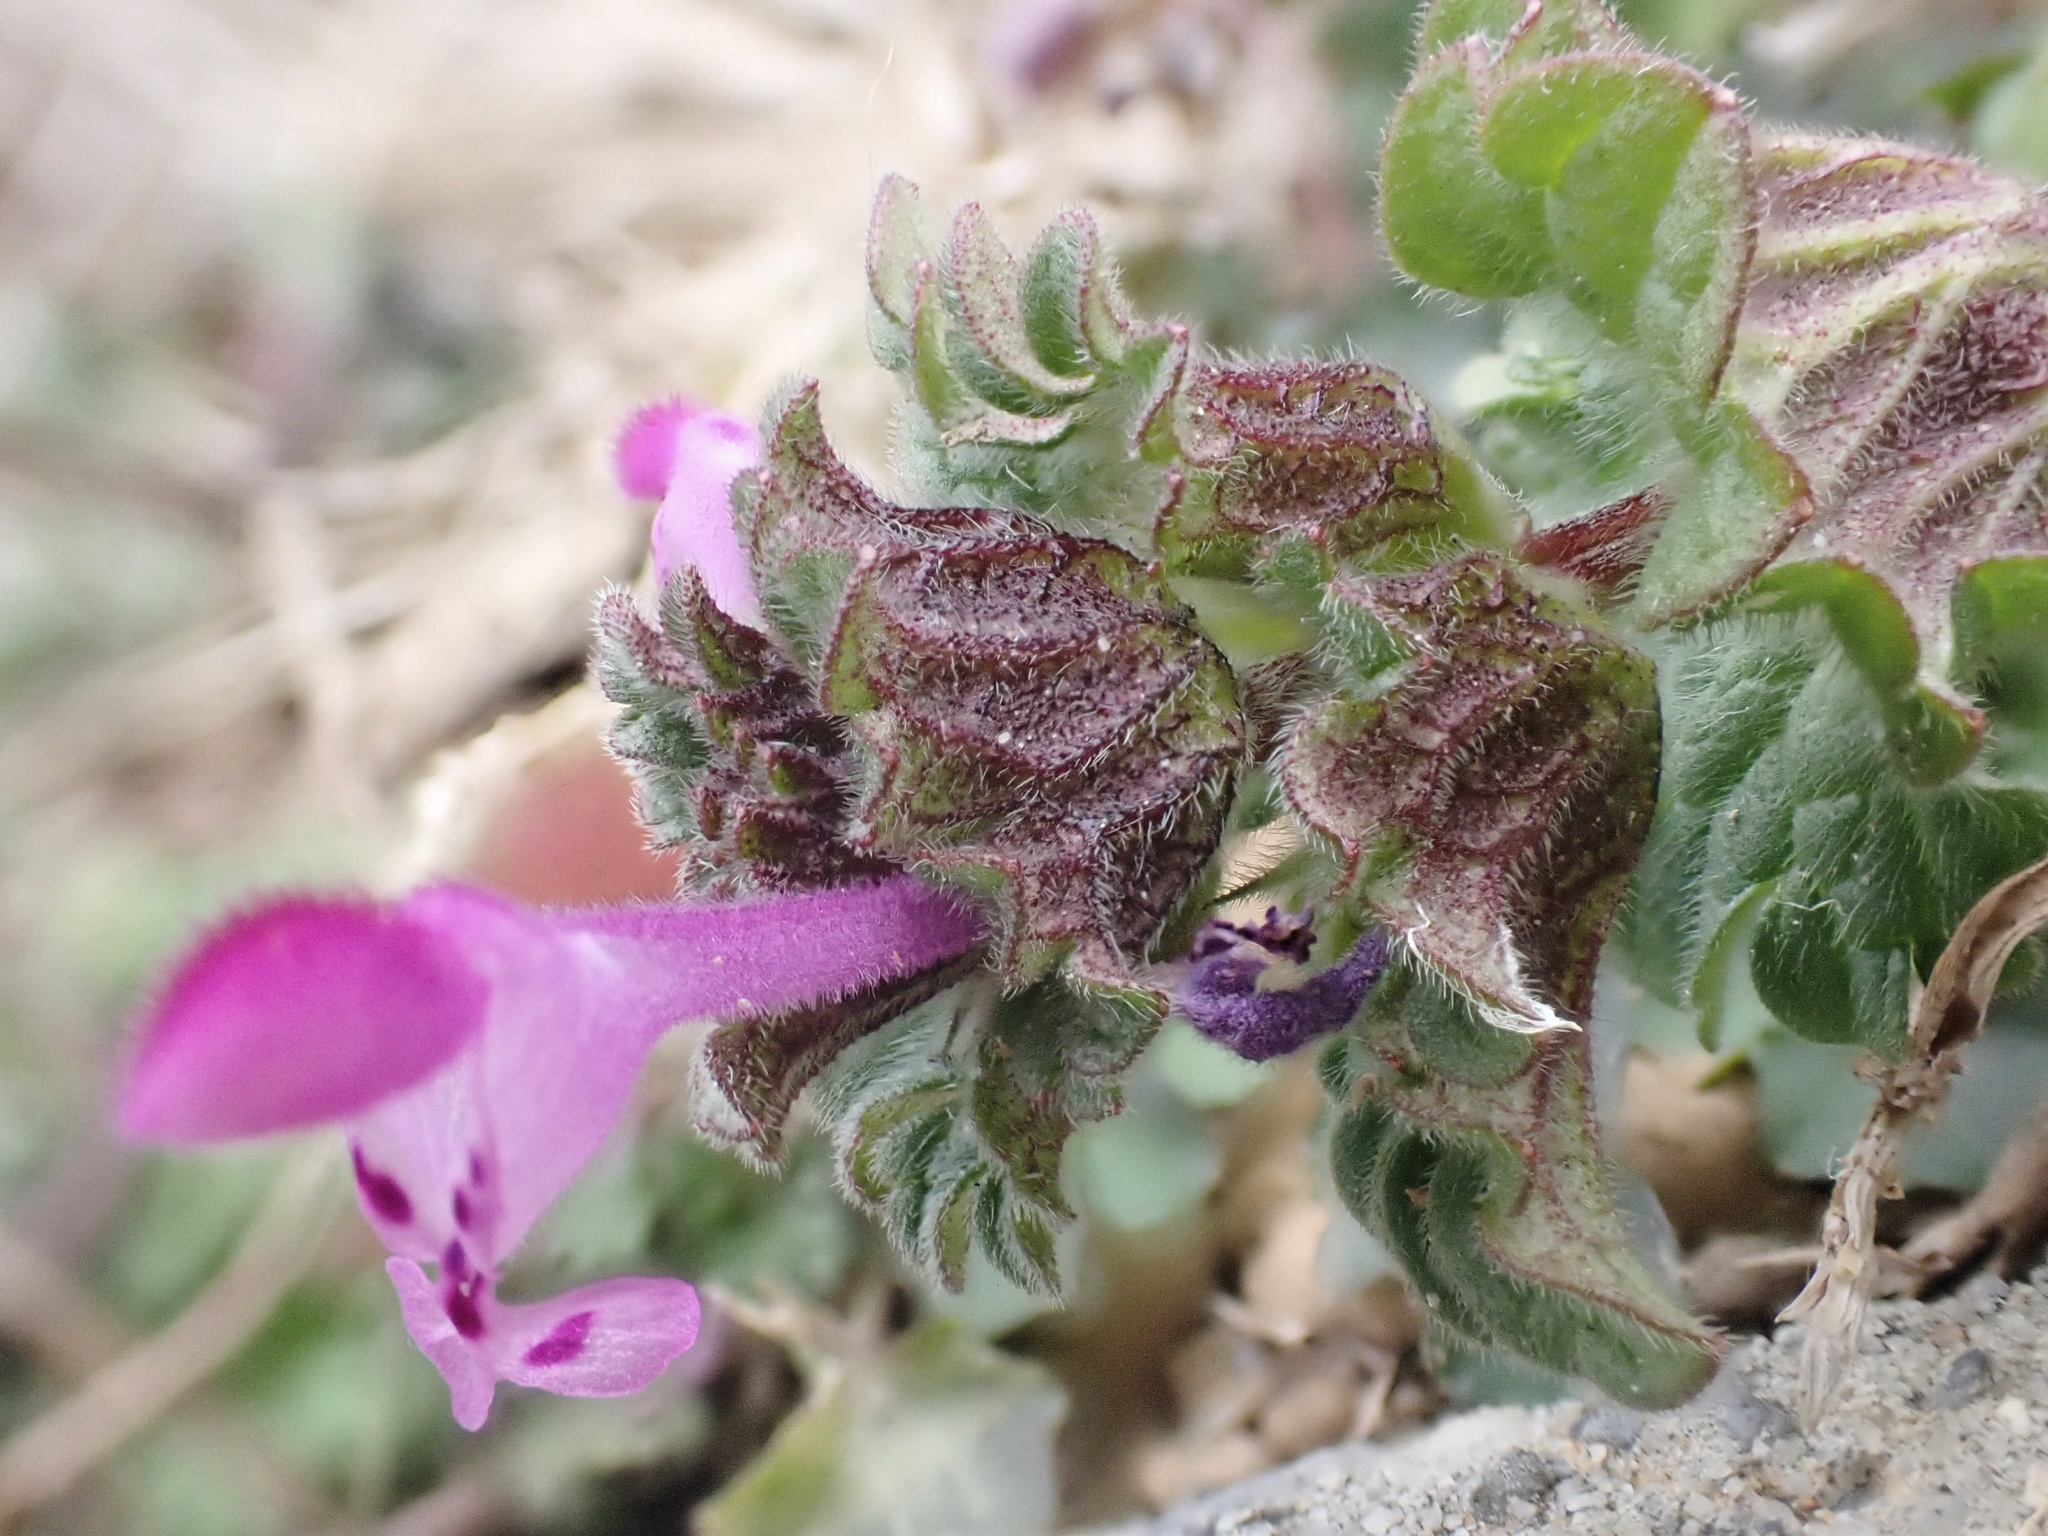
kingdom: Plantae
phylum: Tracheophyta
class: Magnoliopsida
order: Lamiales
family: Lamiaceae
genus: Lamium
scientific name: Lamium amplexicaule
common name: Henbit dead-nettle
